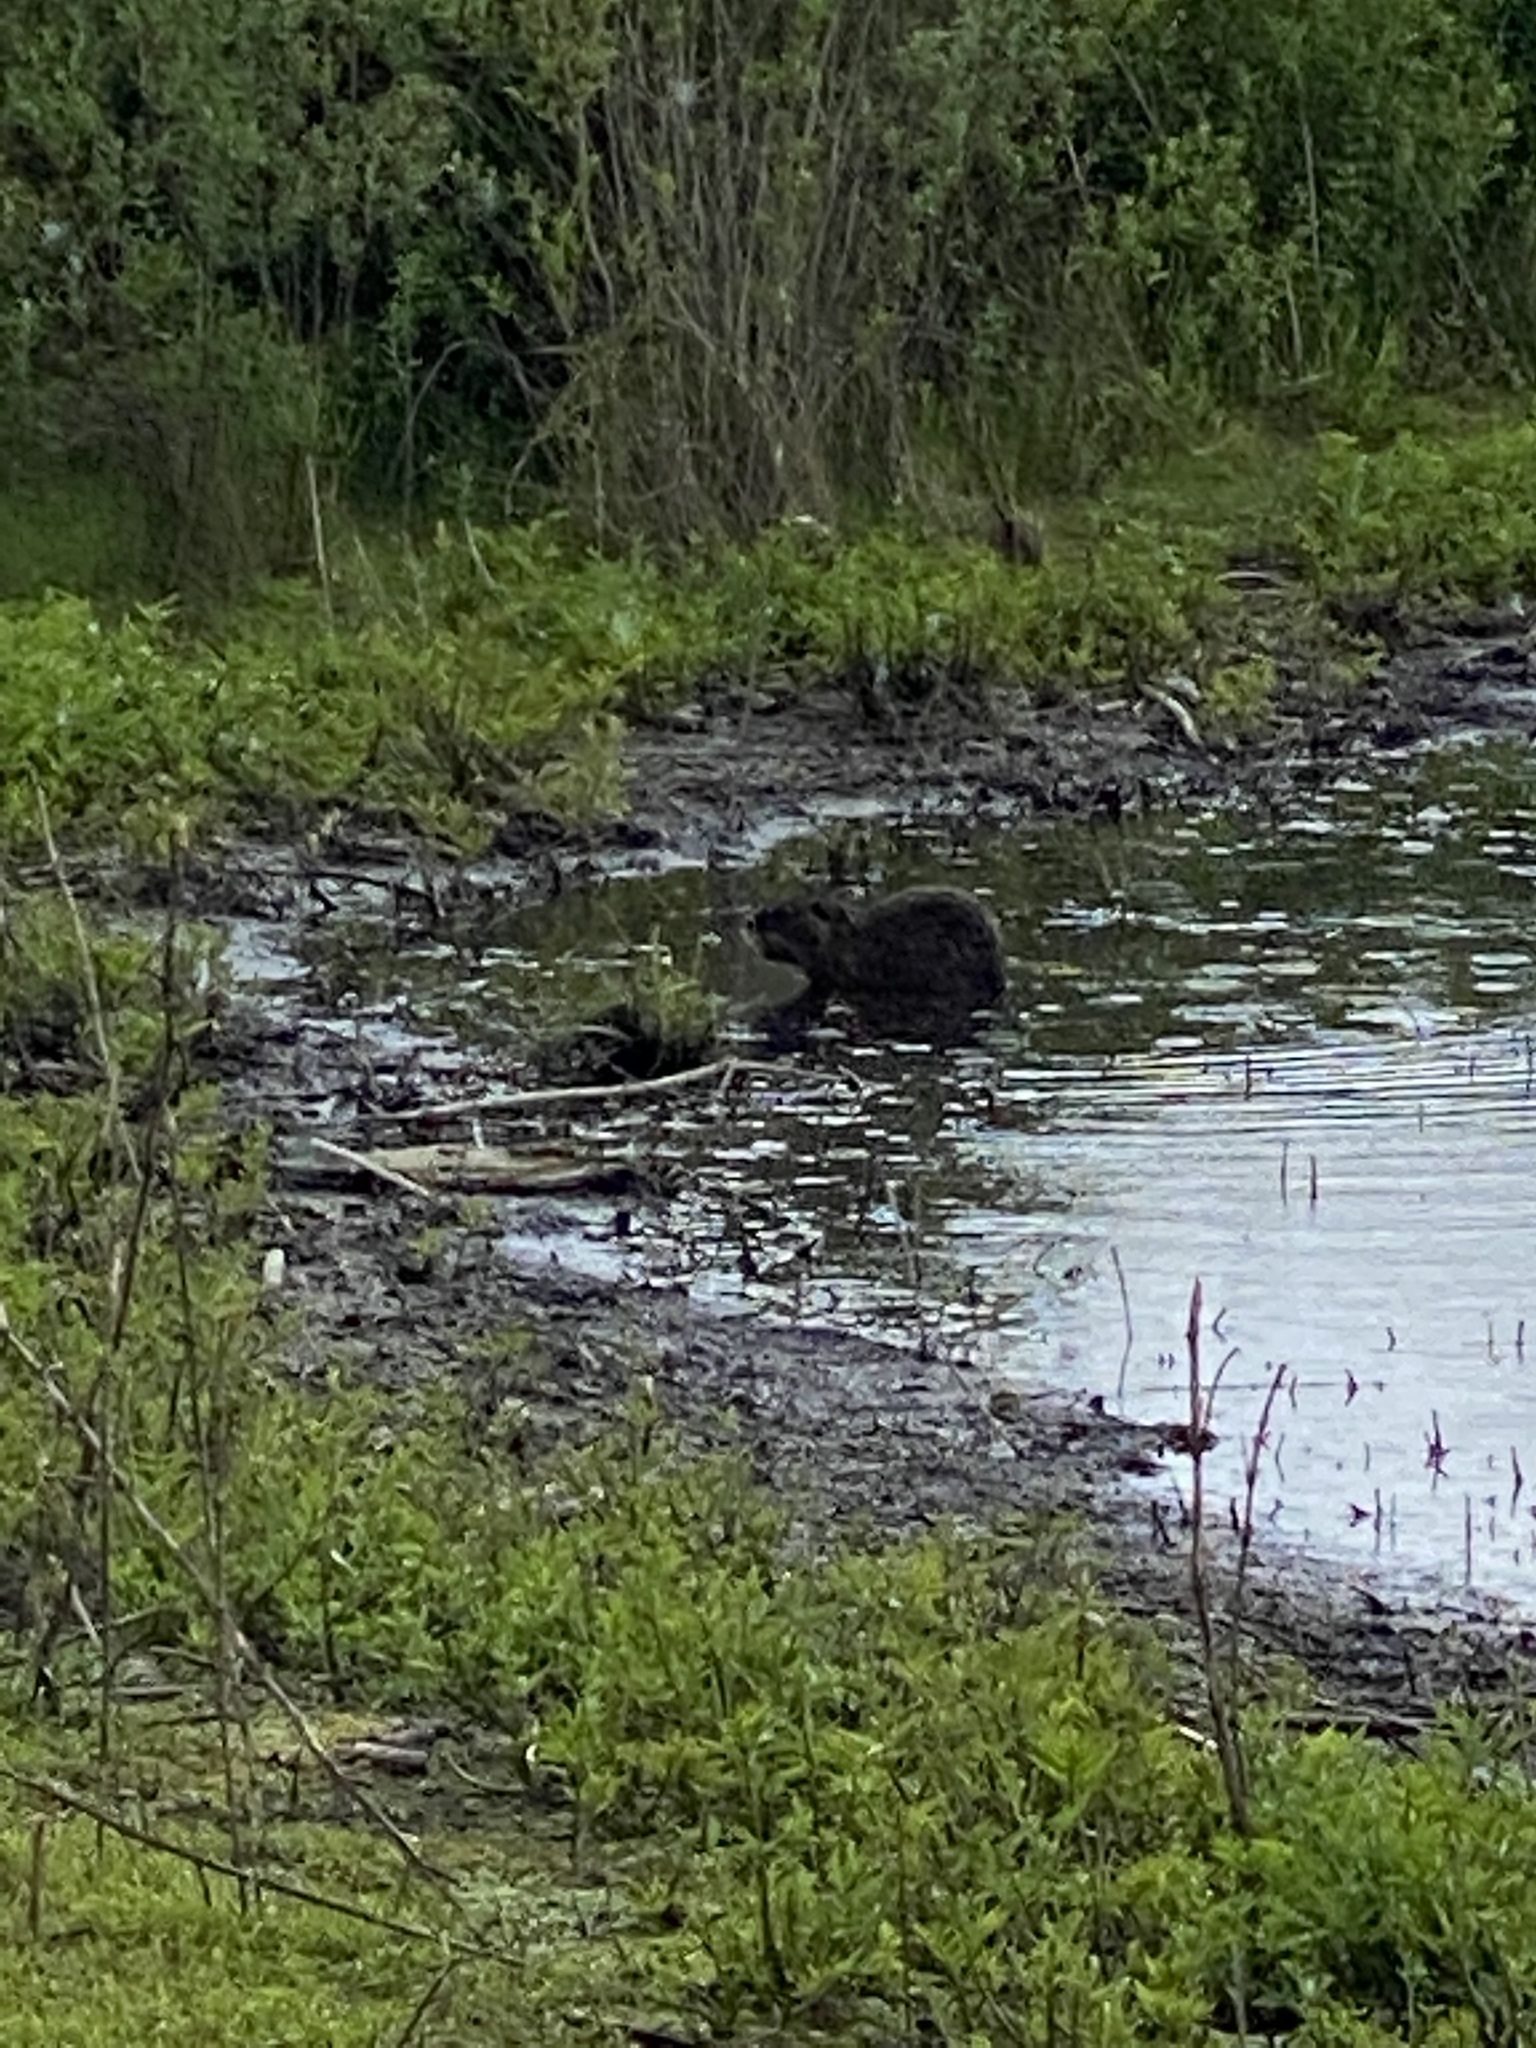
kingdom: Animalia
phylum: Chordata
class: Mammalia
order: Rodentia
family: Myocastoridae
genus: Myocastor
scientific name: Myocastor coypus
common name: Coypu
